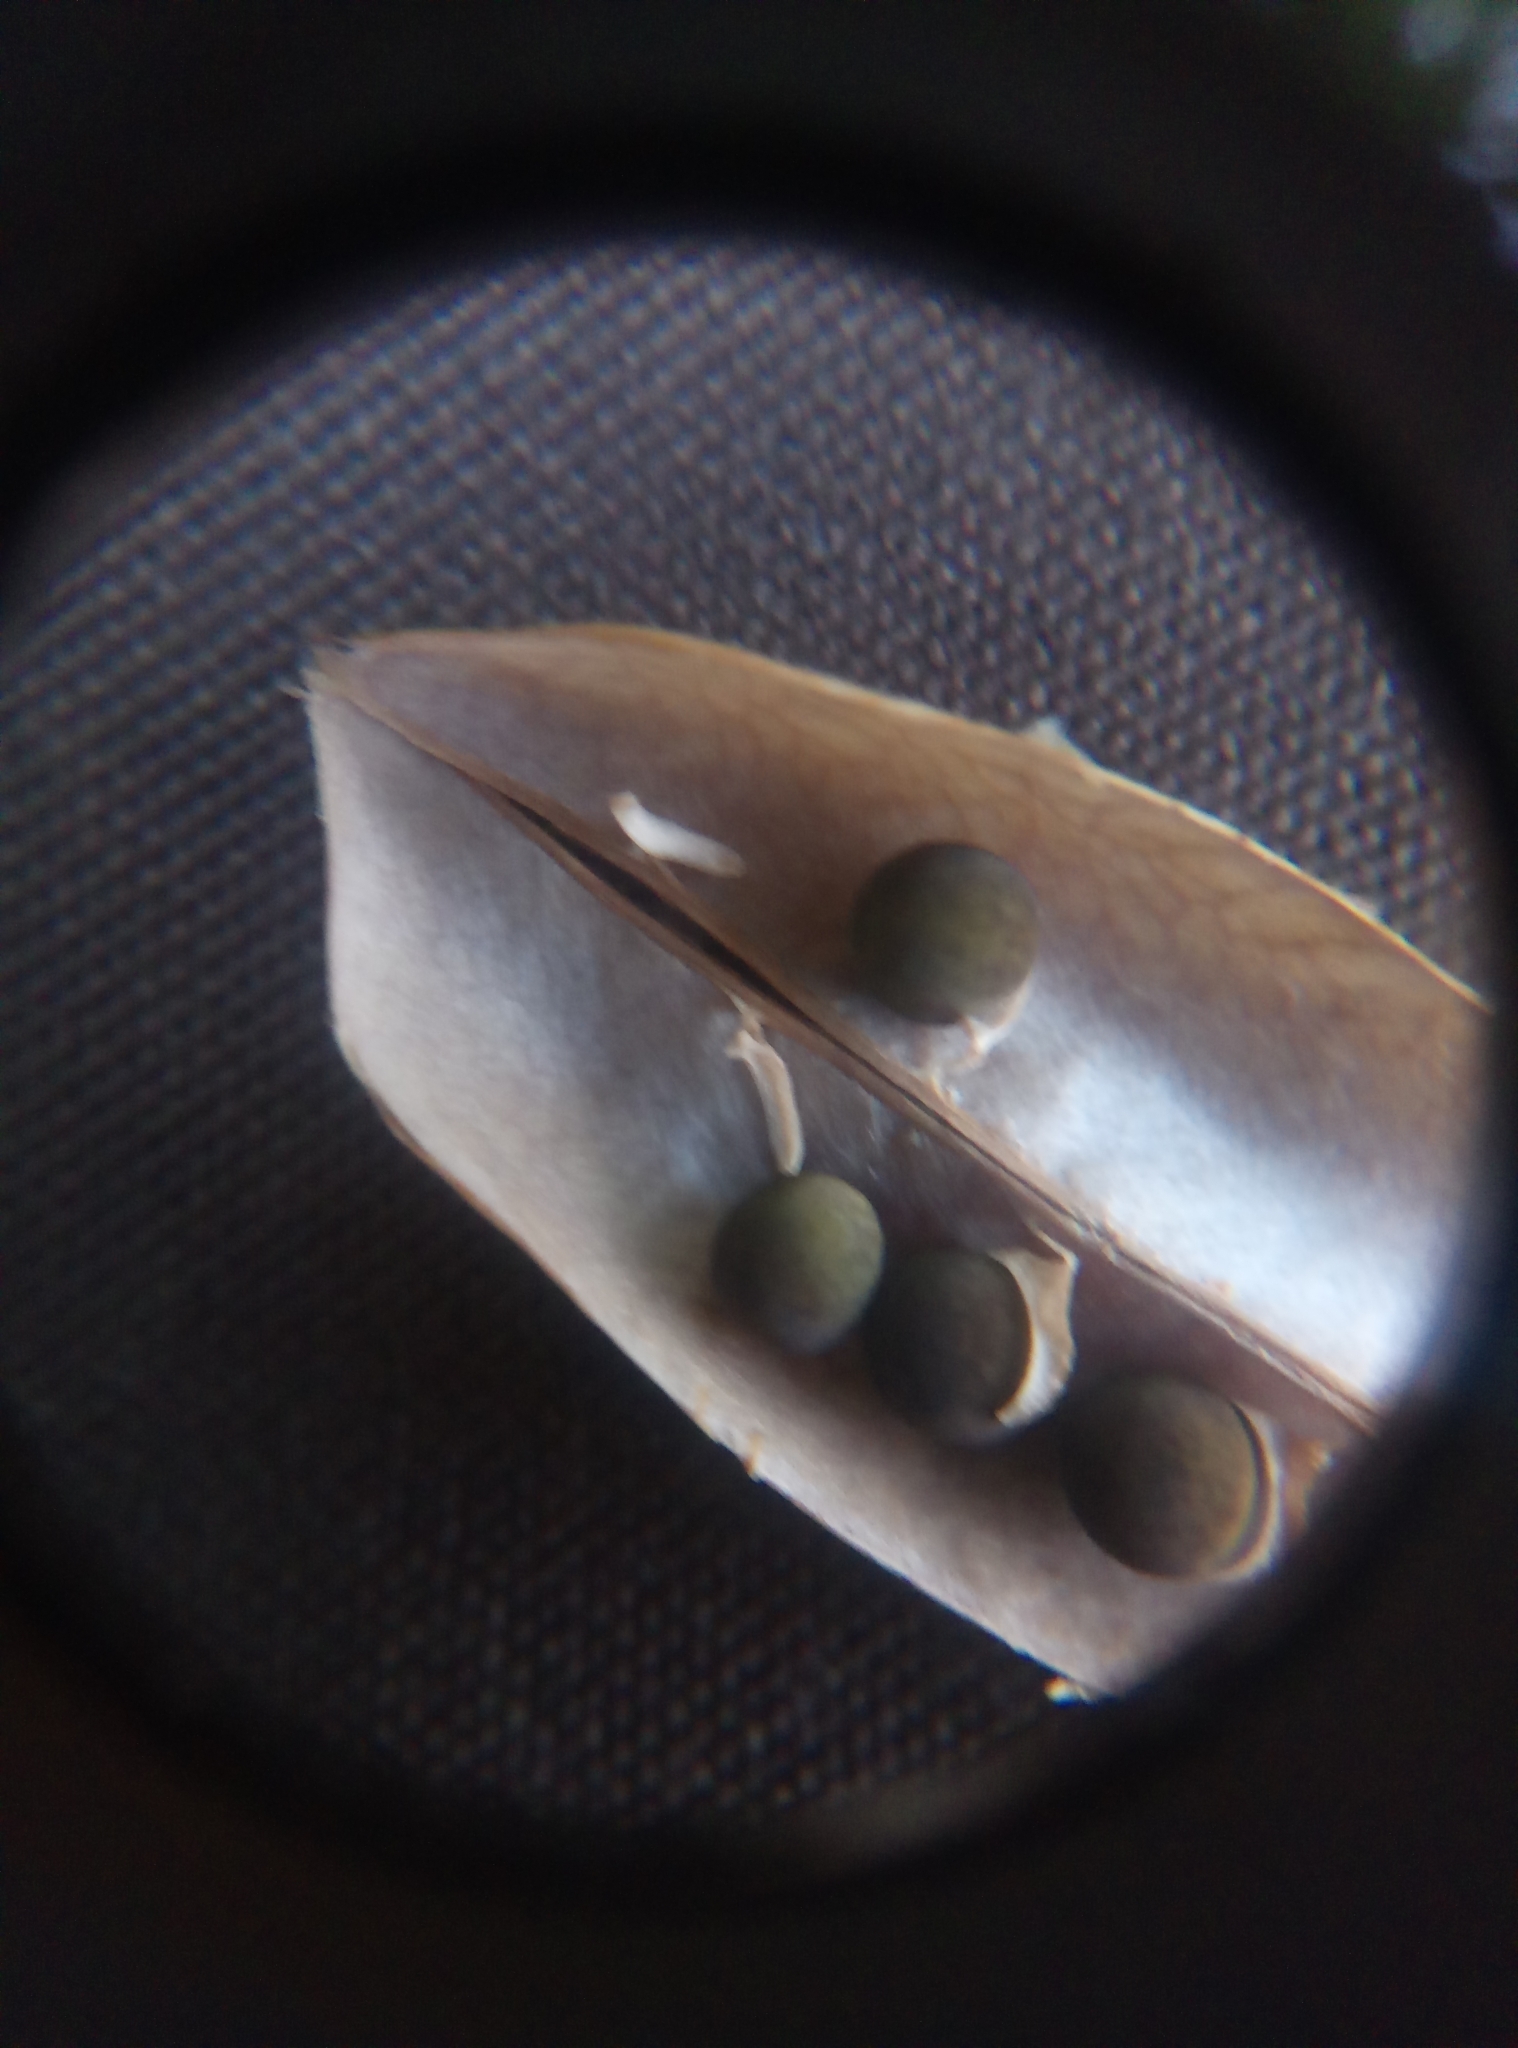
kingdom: Plantae
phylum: Tracheophyta
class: Magnoliopsida
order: Fabales
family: Fabaceae
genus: Vicia
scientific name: Vicia cracca
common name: Bird vetch
